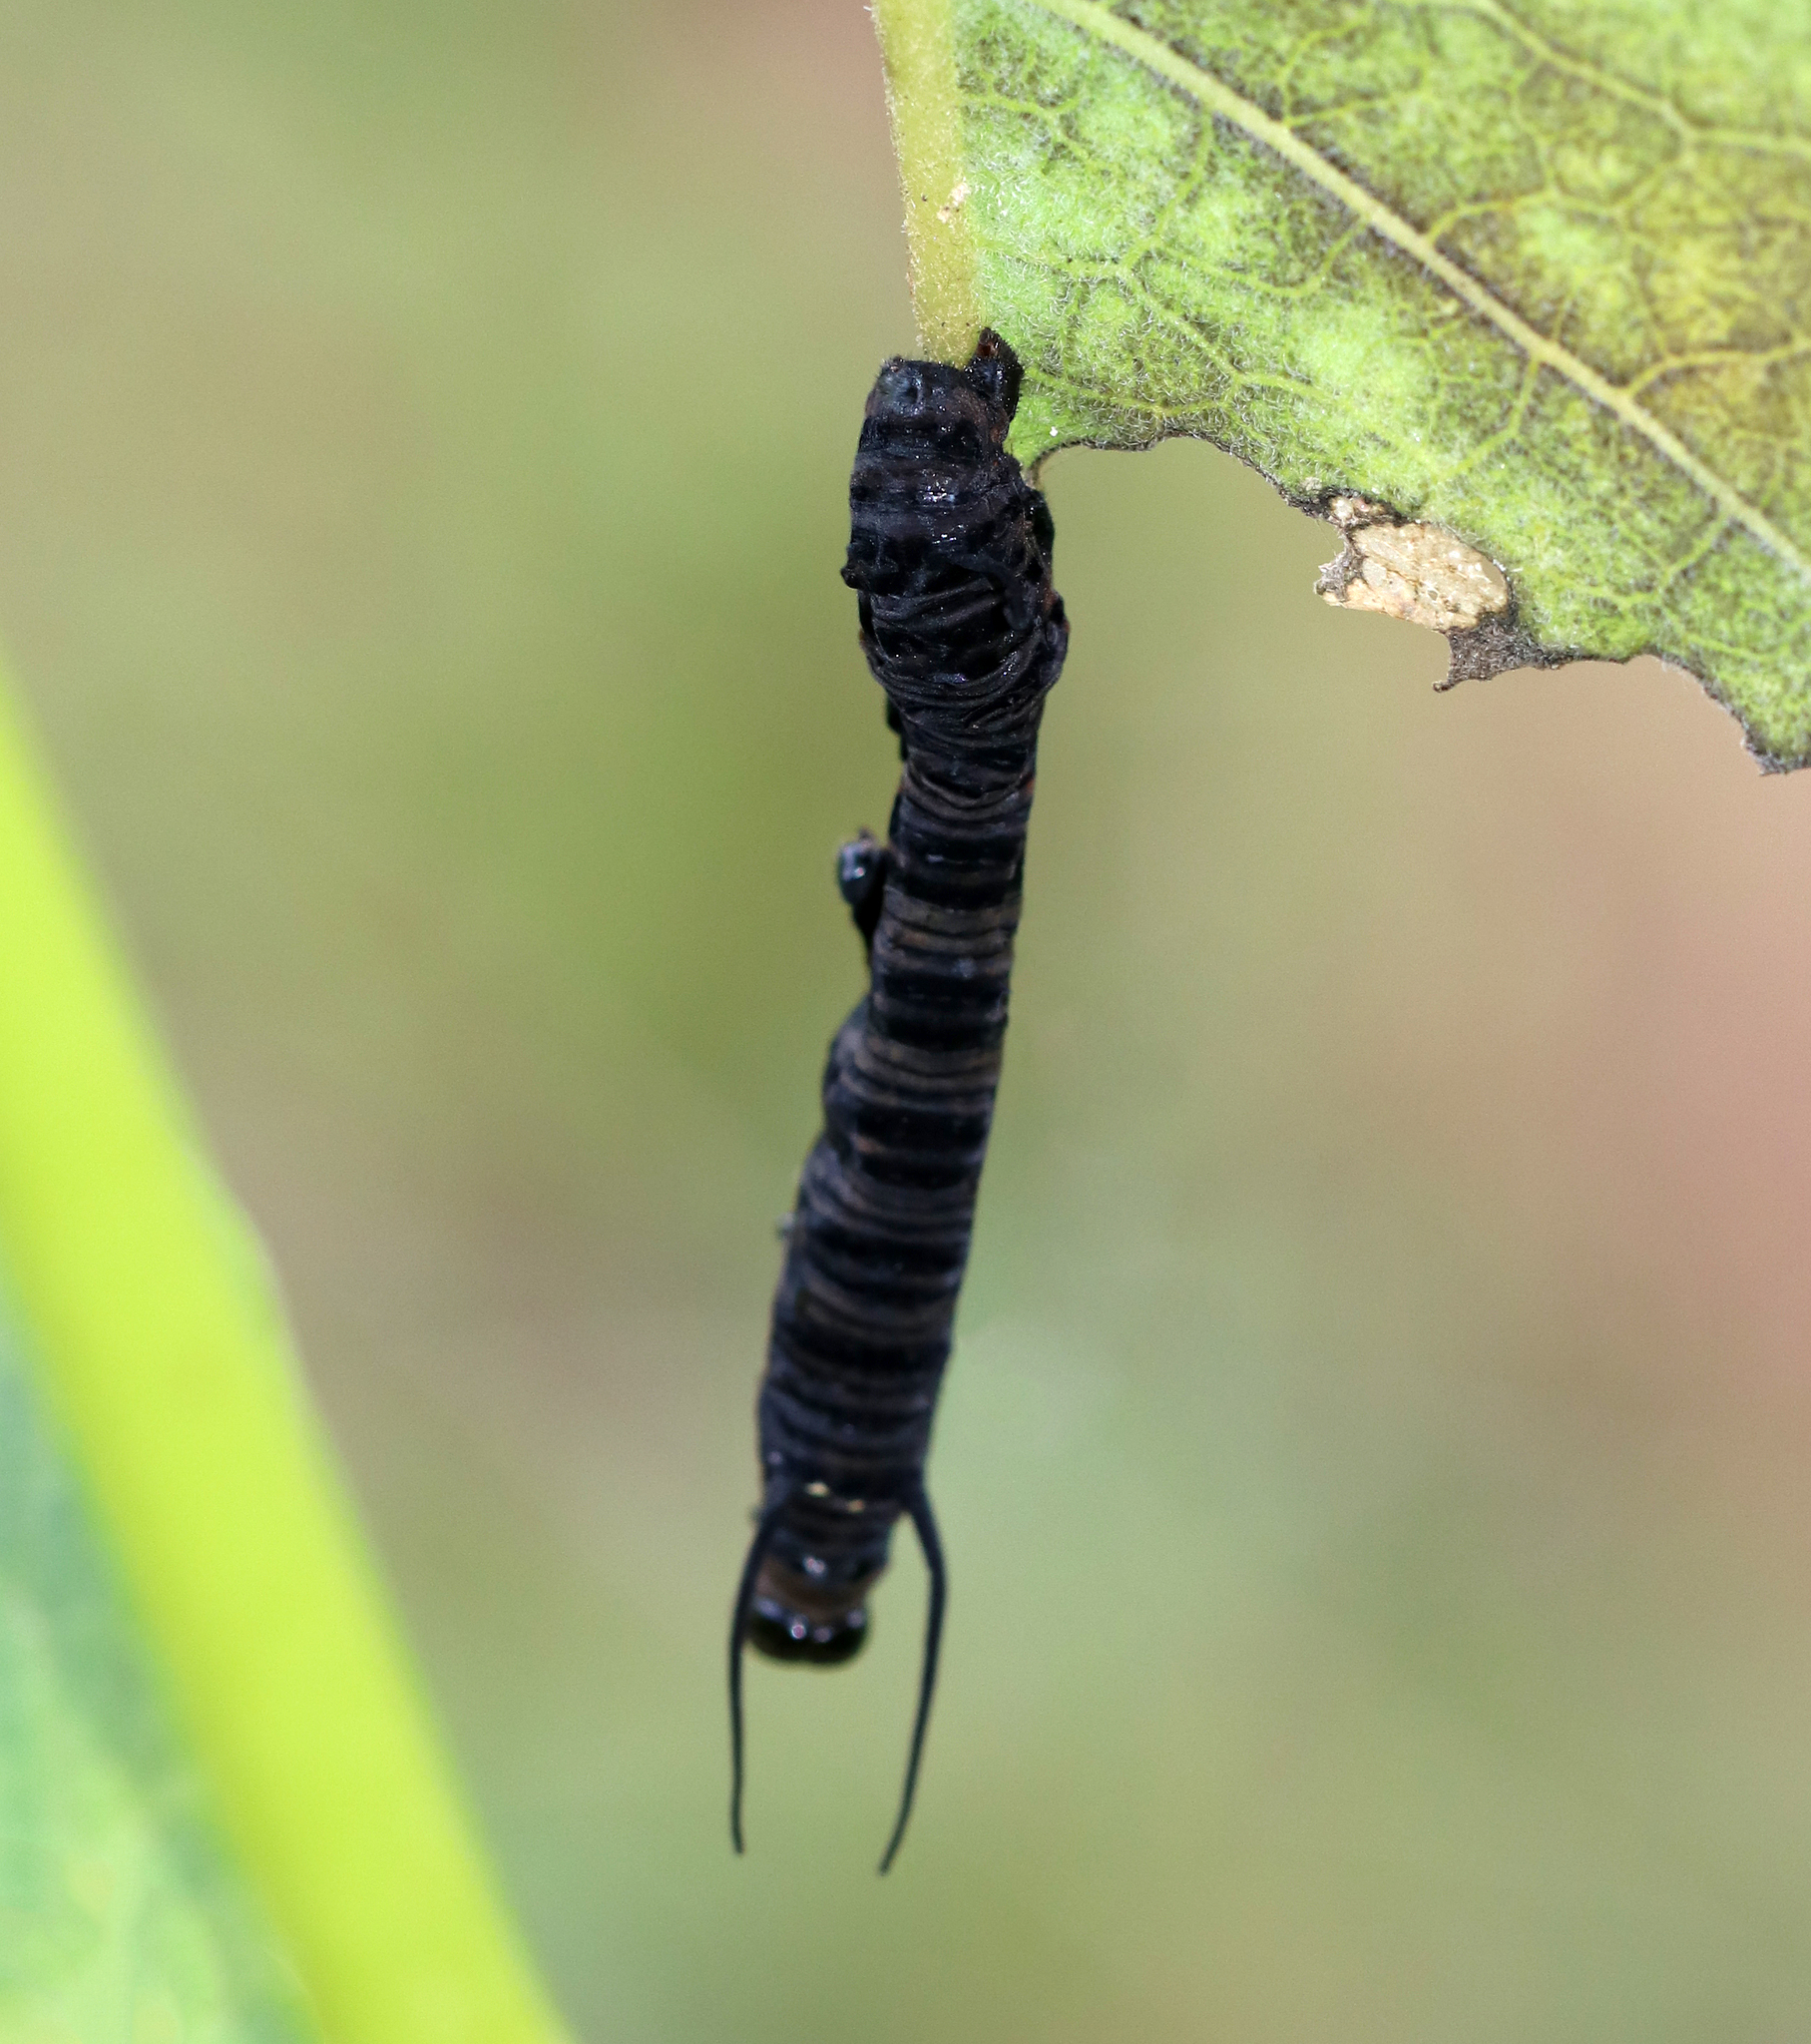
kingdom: Animalia
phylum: Arthropoda
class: Insecta
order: Lepidoptera
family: Nymphalidae
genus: Danaus
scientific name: Danaus plexippus
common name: Monarch
